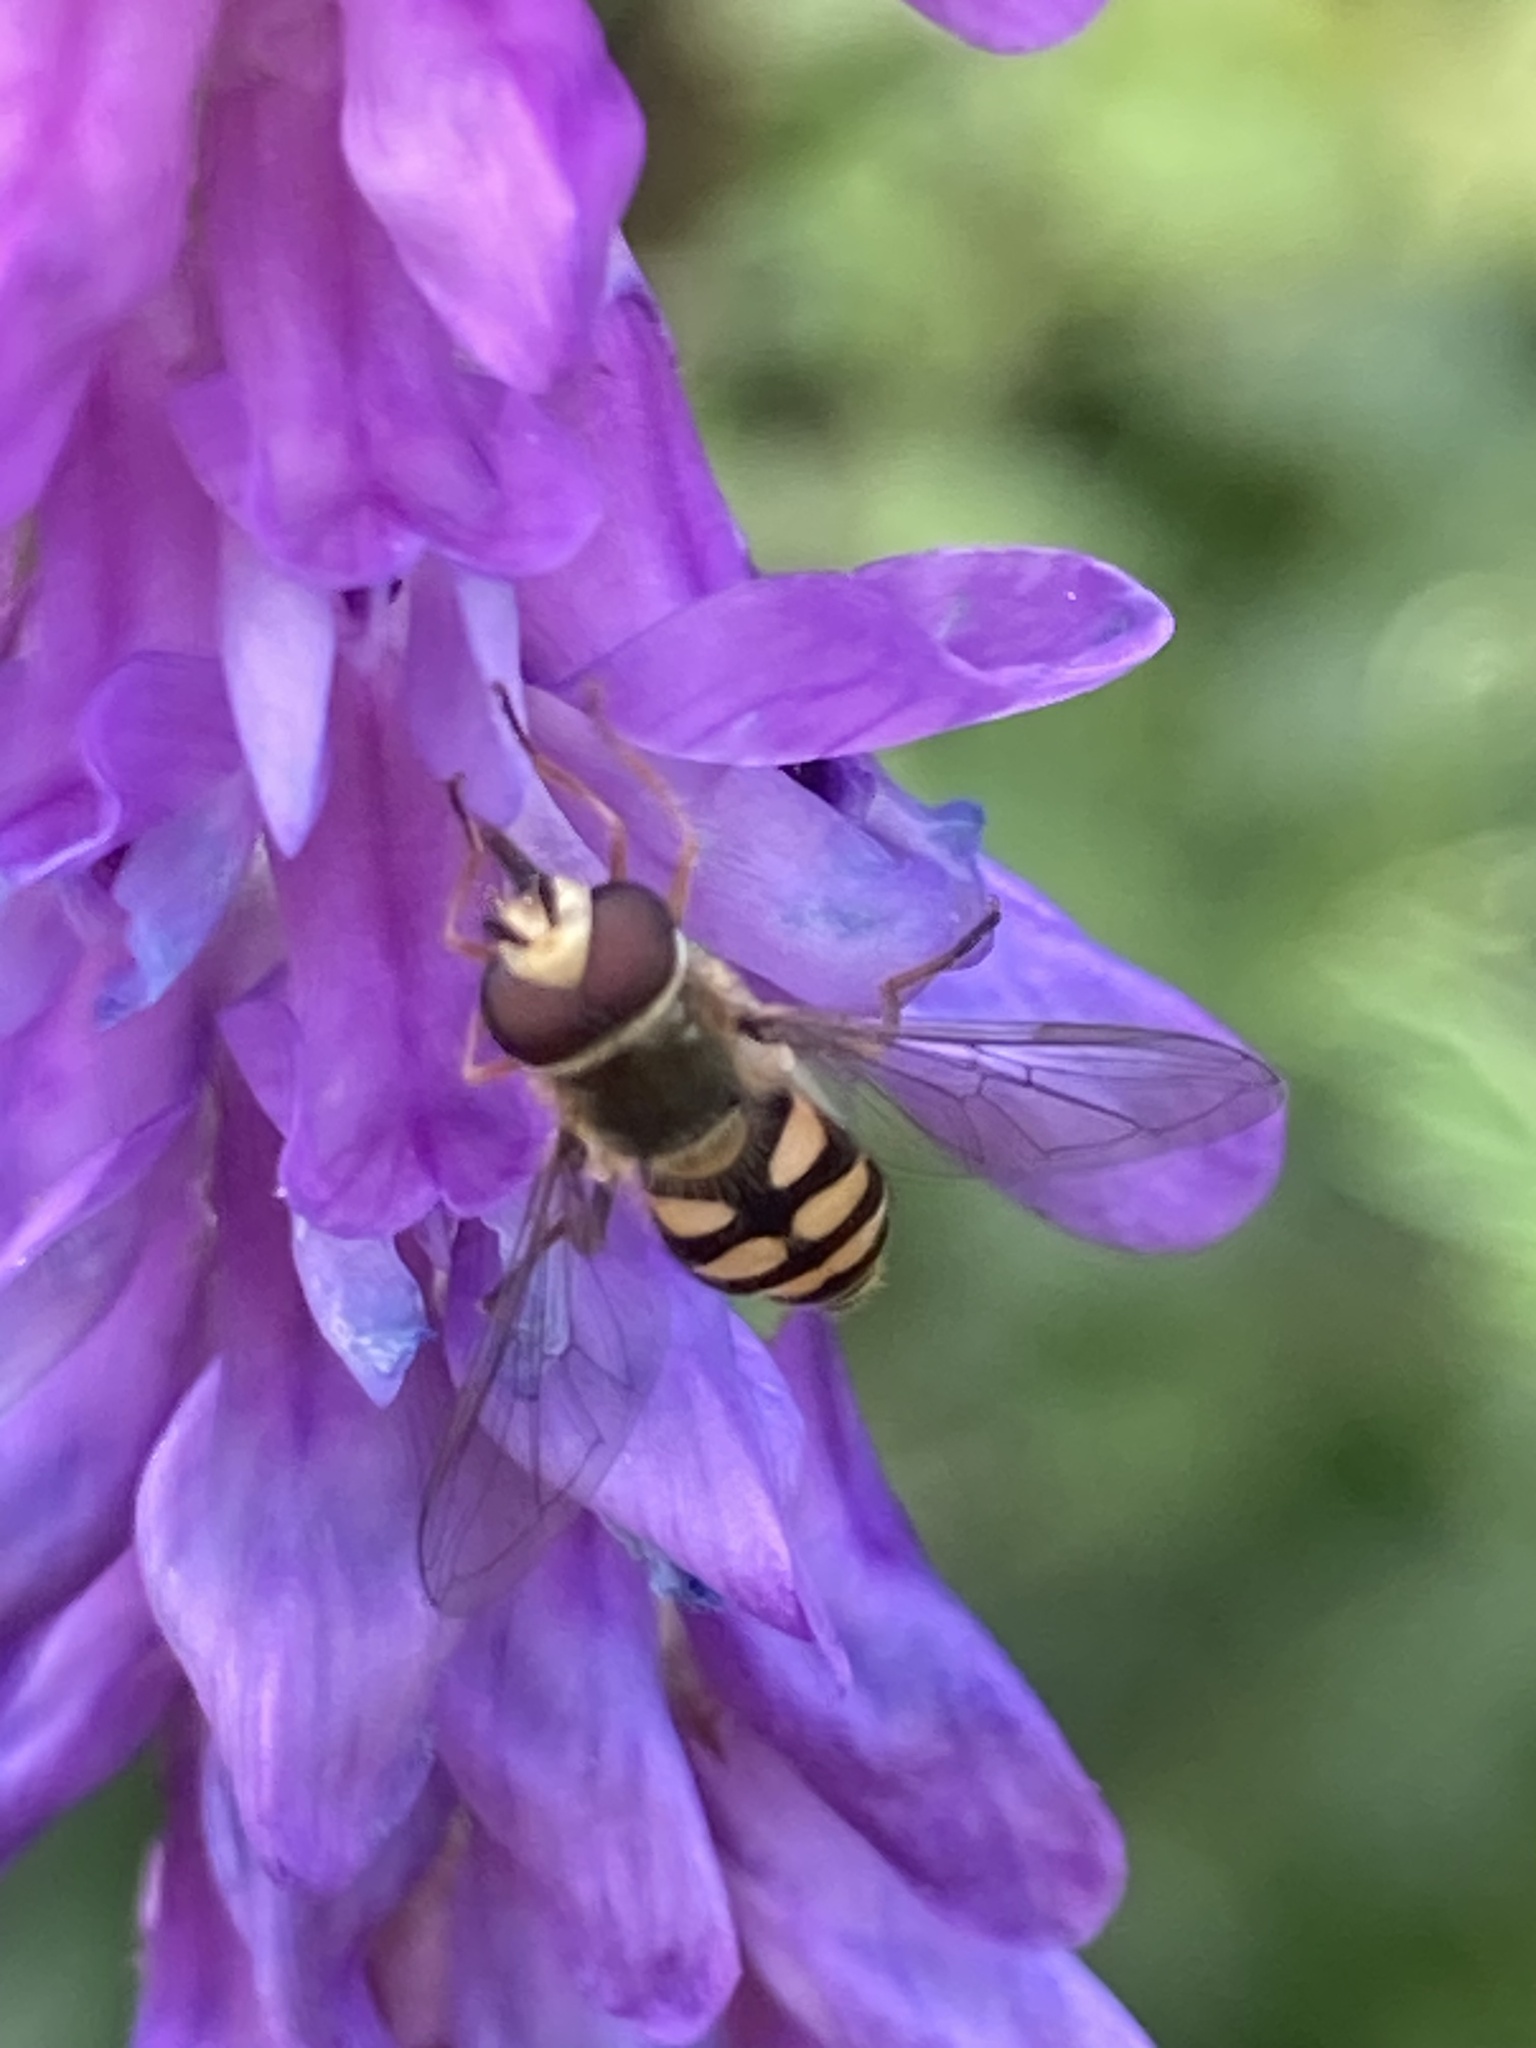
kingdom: Animalia
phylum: Arthropoda
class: Insecta
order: Diptera
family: Syrphidae
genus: Eupeodes
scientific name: Eupeodes corollae
